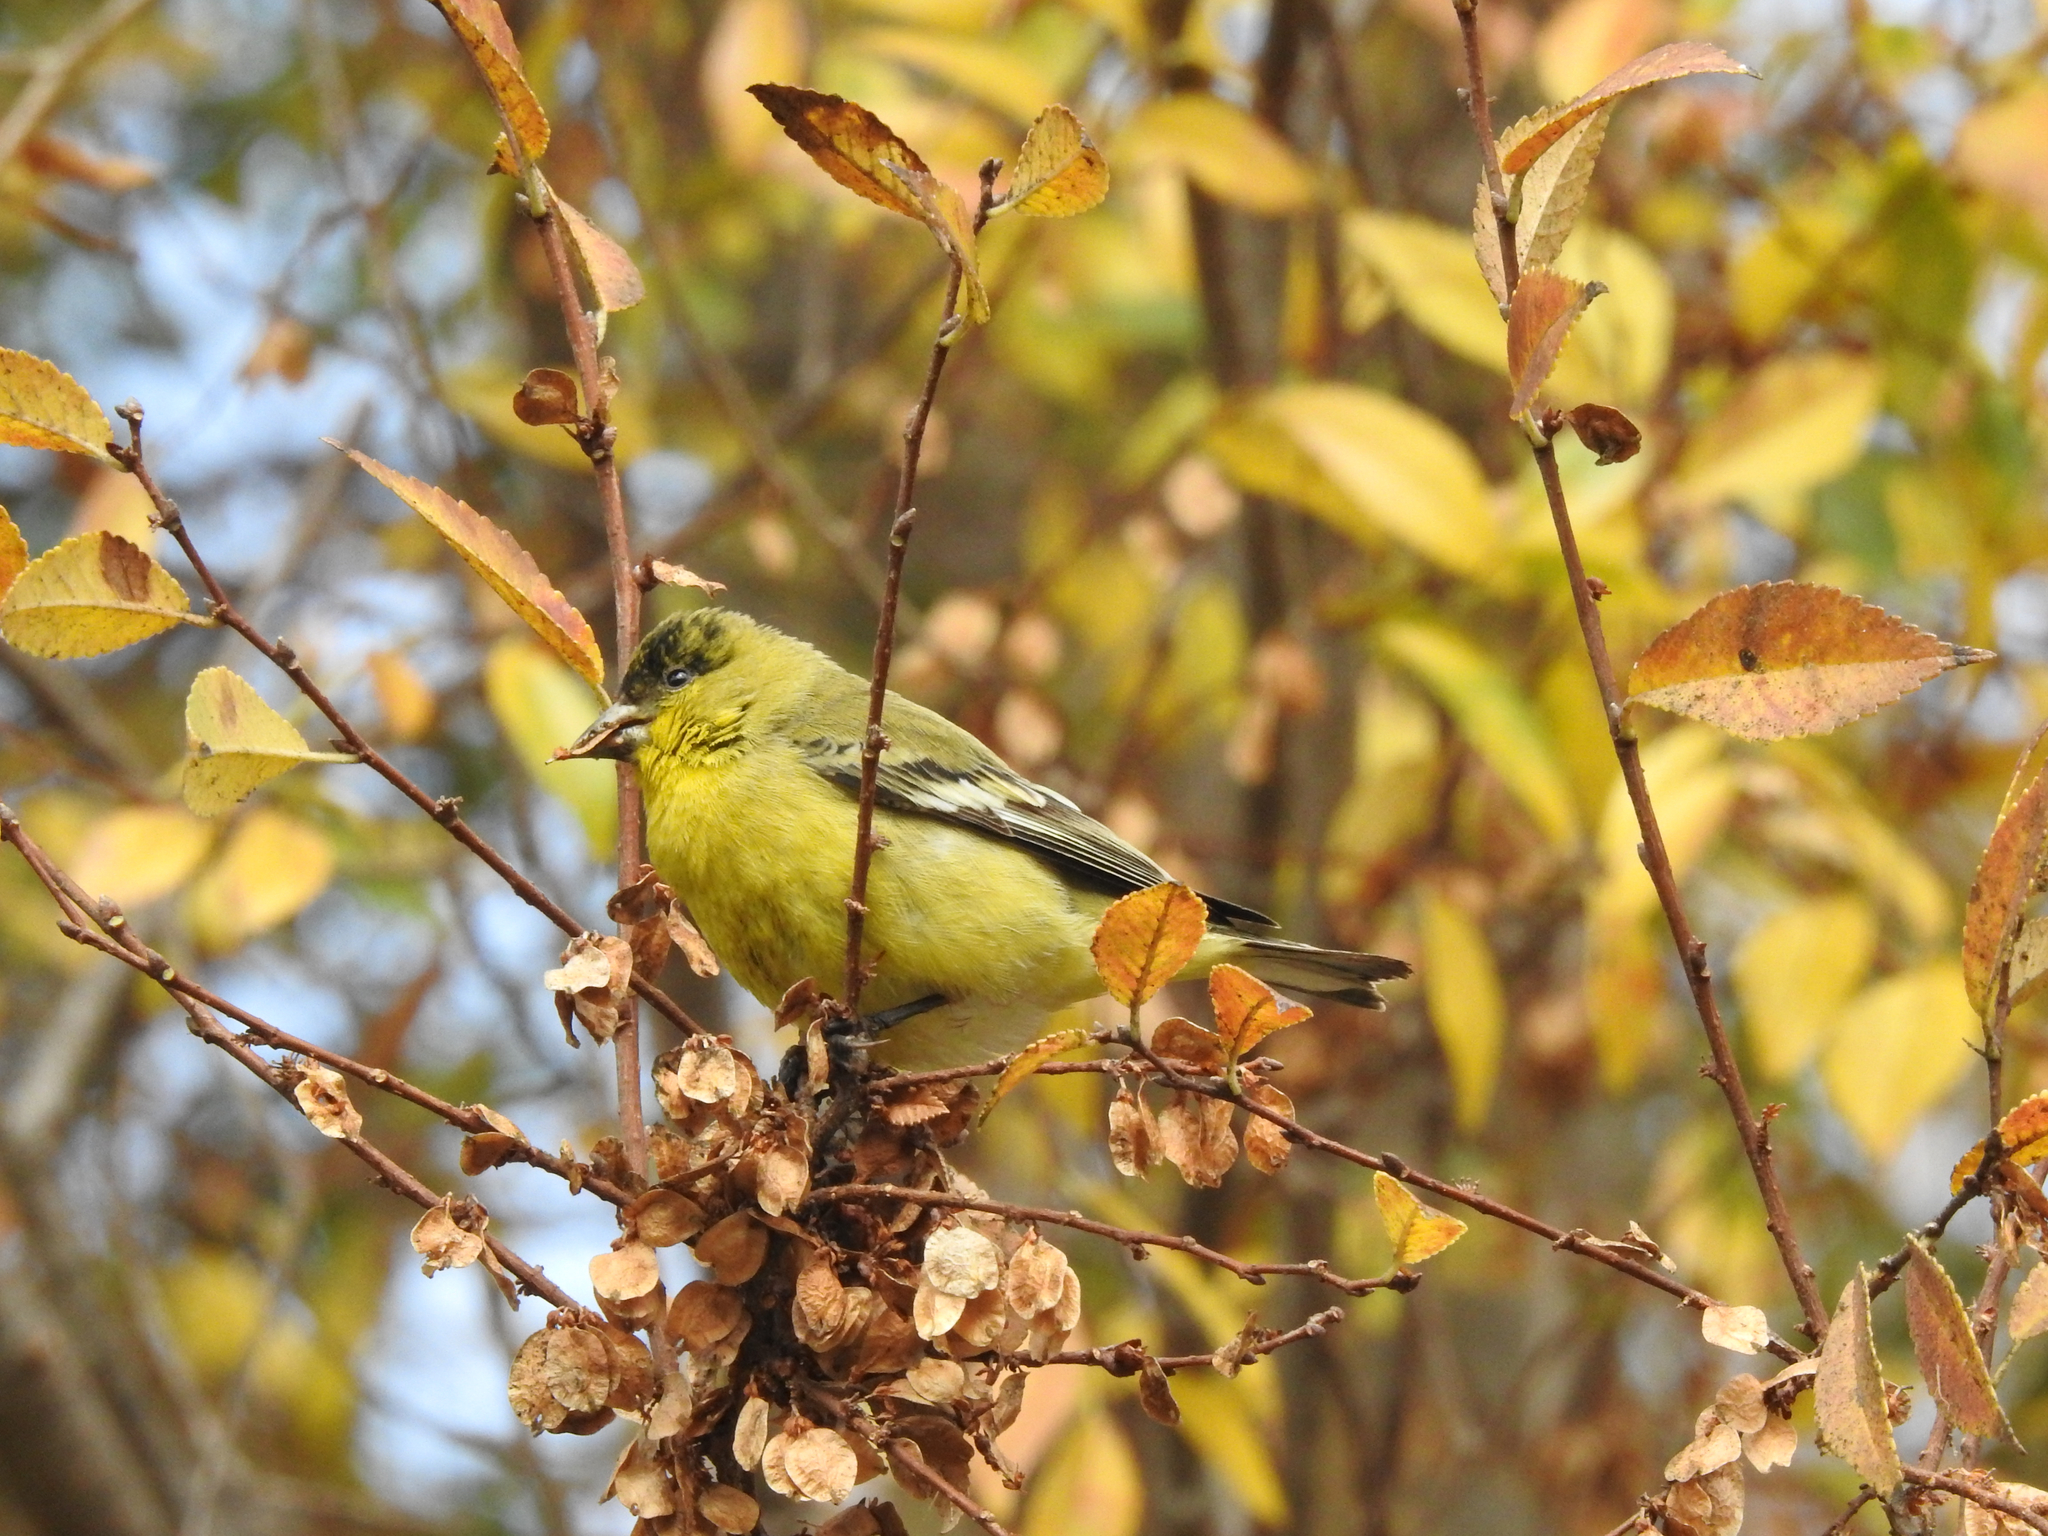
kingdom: Animalia
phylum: Chordata
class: Aves
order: Passeriformes
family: Fringillidae
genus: Spinus
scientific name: Spinus psaltria
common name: Lesser goldfinch
